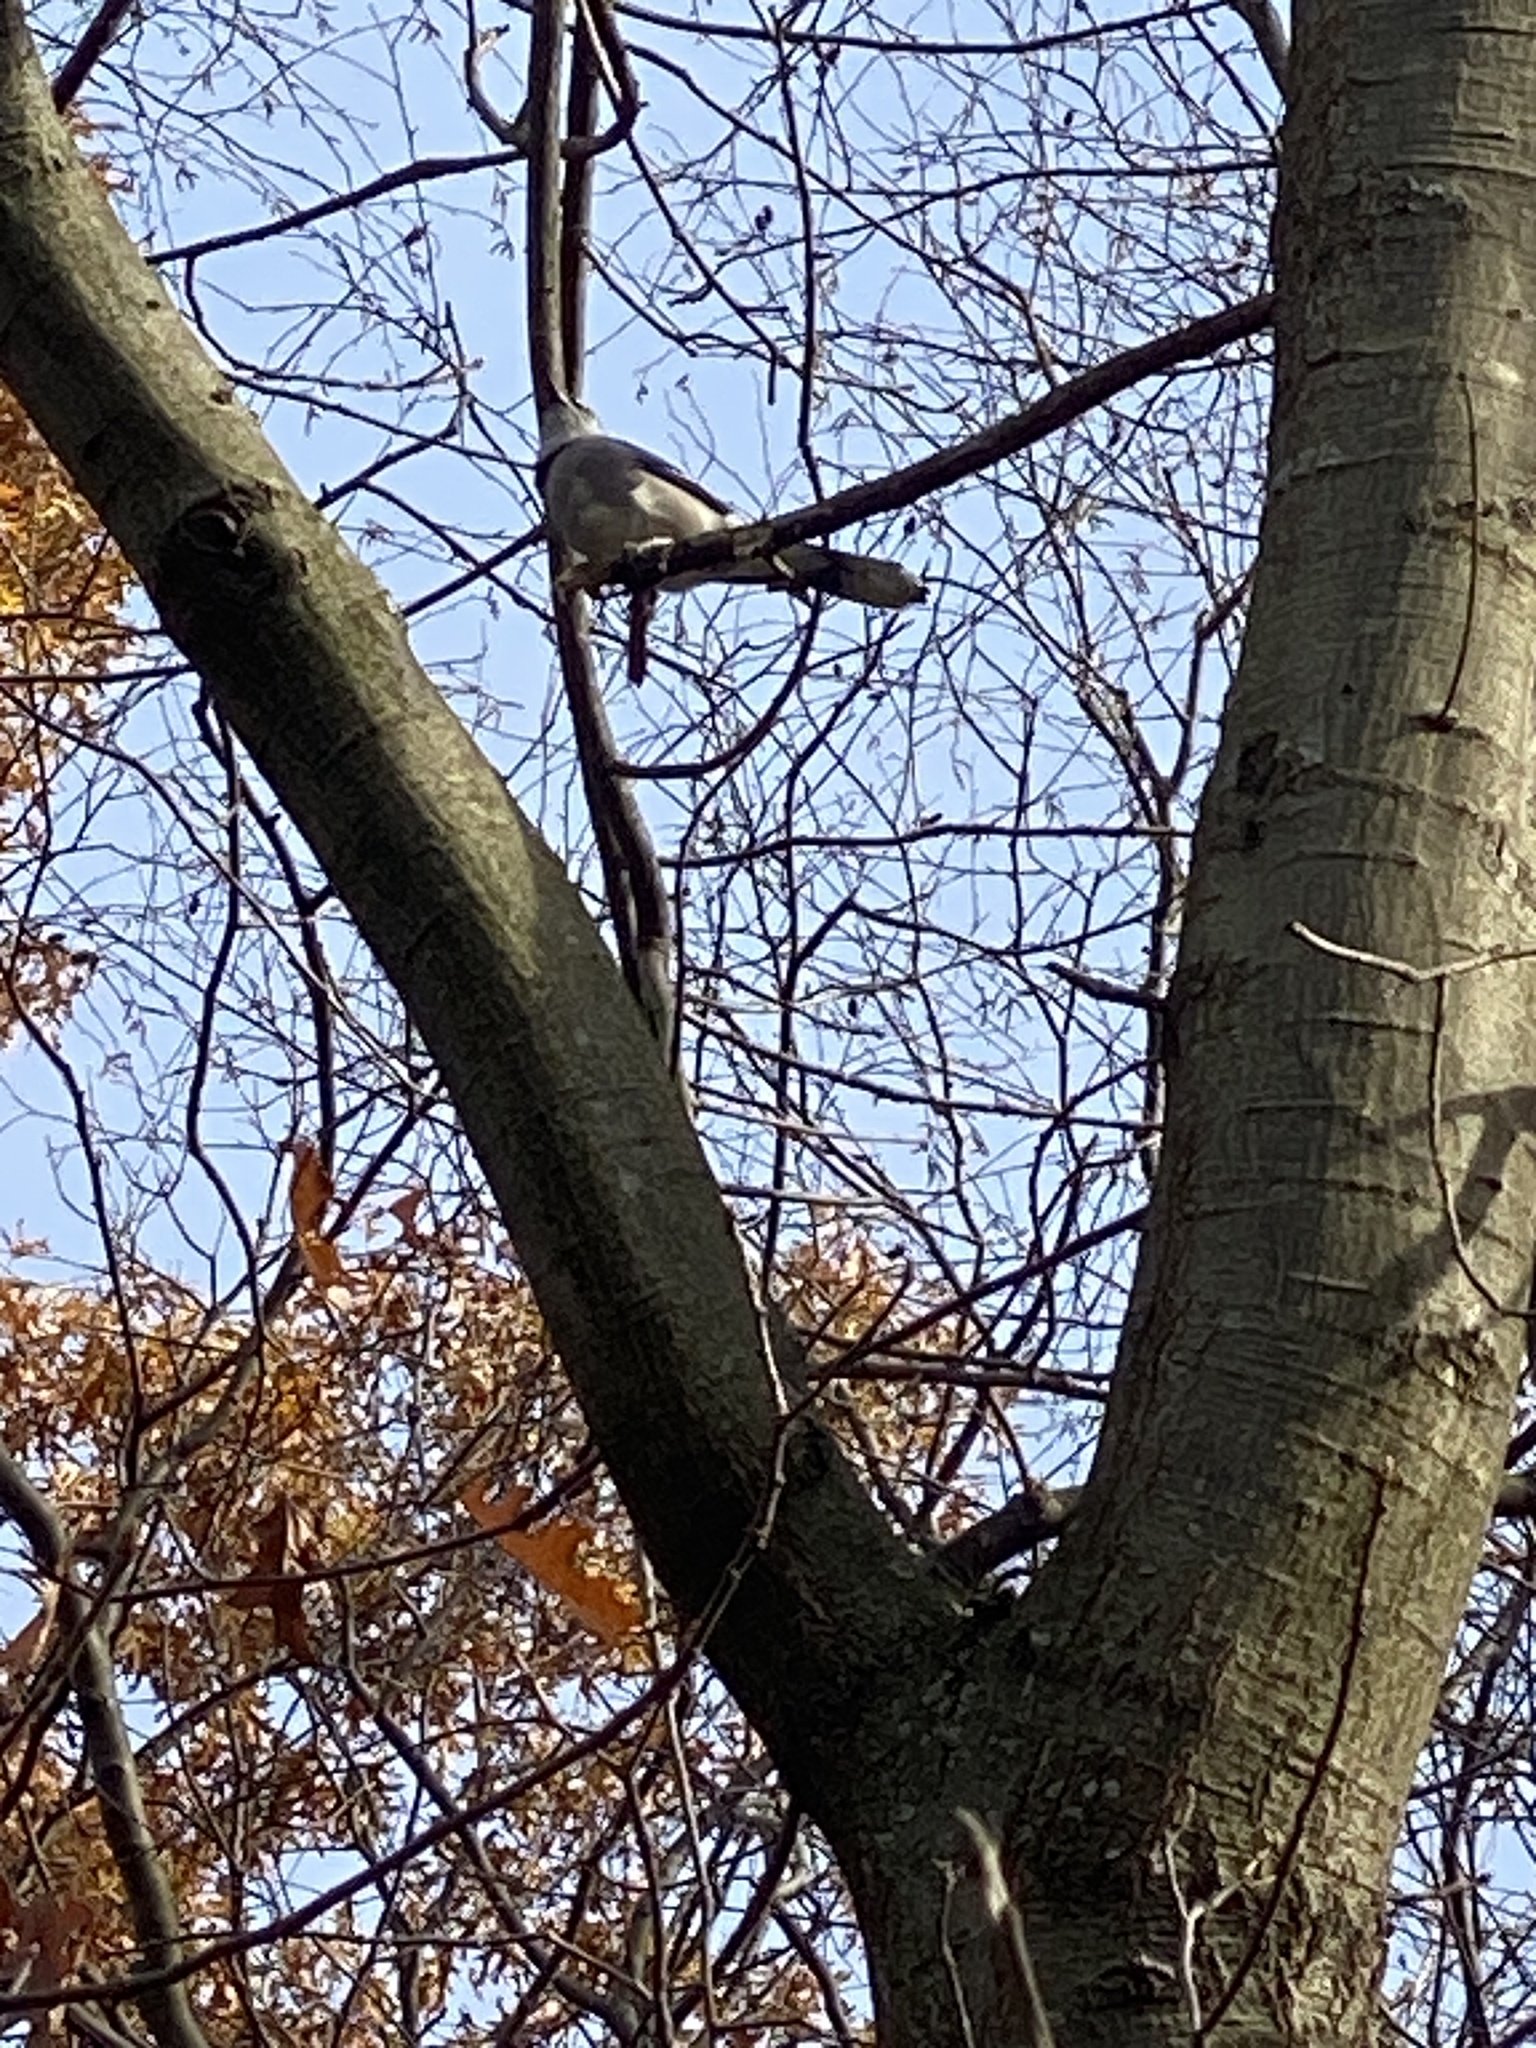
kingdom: Animalia
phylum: Chordata
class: Aves
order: Passeriformes
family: Corvidae
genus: Cyanocitta
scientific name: Cyanocitta cristata
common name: Blue jay
